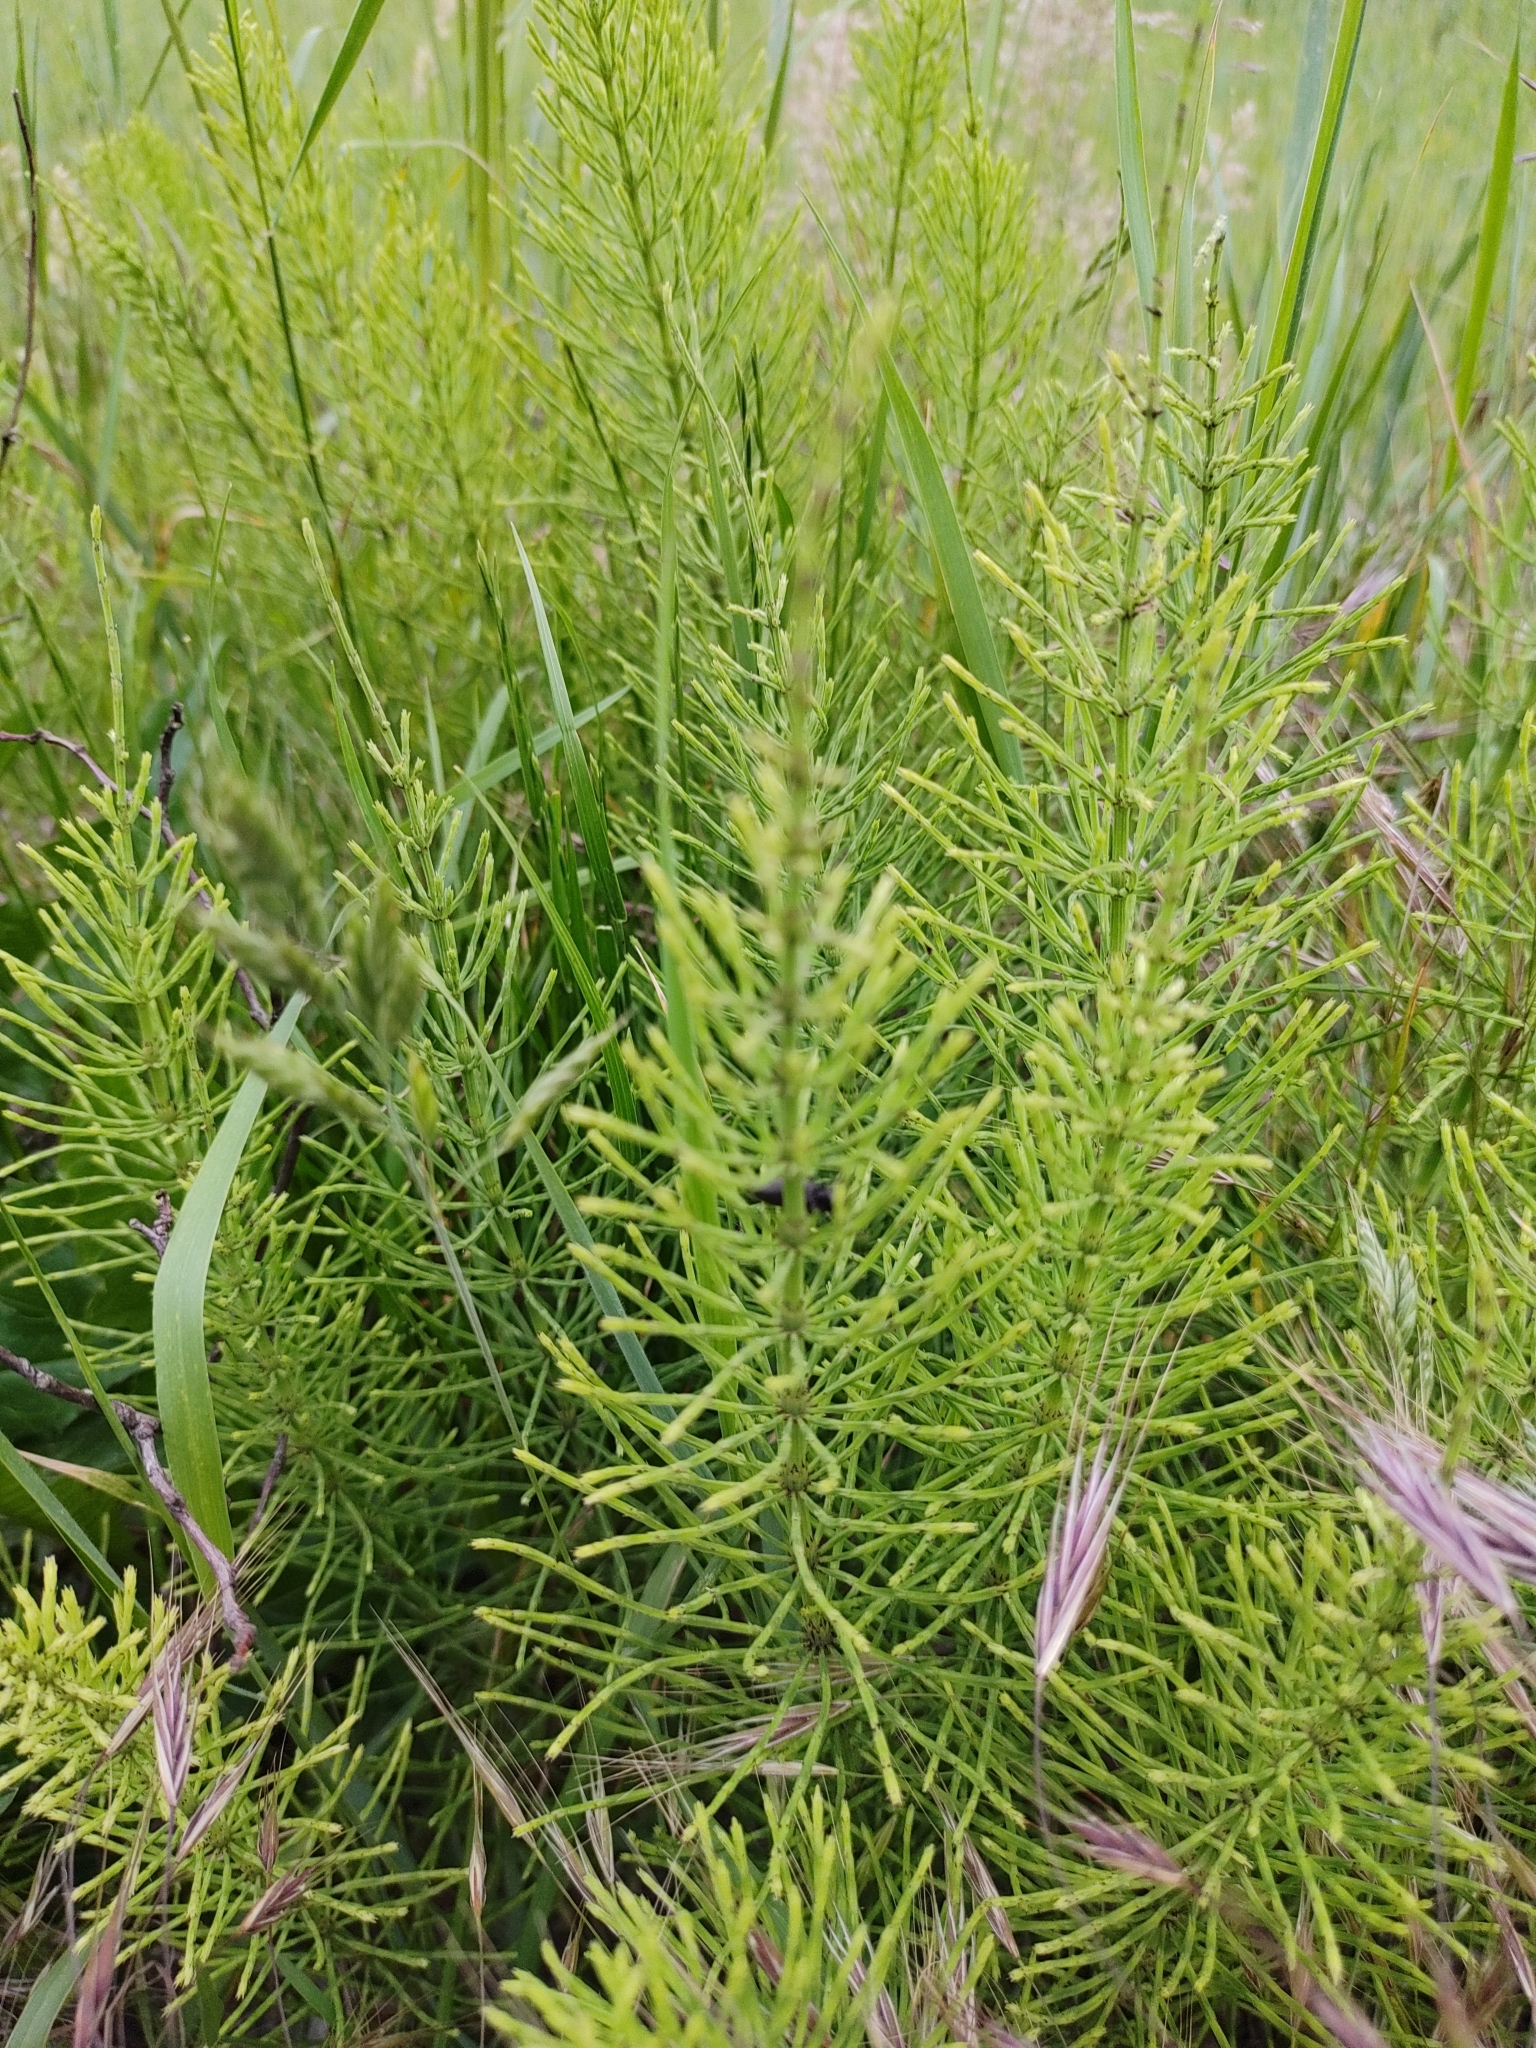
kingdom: Plantae
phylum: Tracheophyta
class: Polypodiopsida
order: Equisetales
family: Equisetaceae
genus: Equisetum
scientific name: Equisetum arvense
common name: Field horsetail
